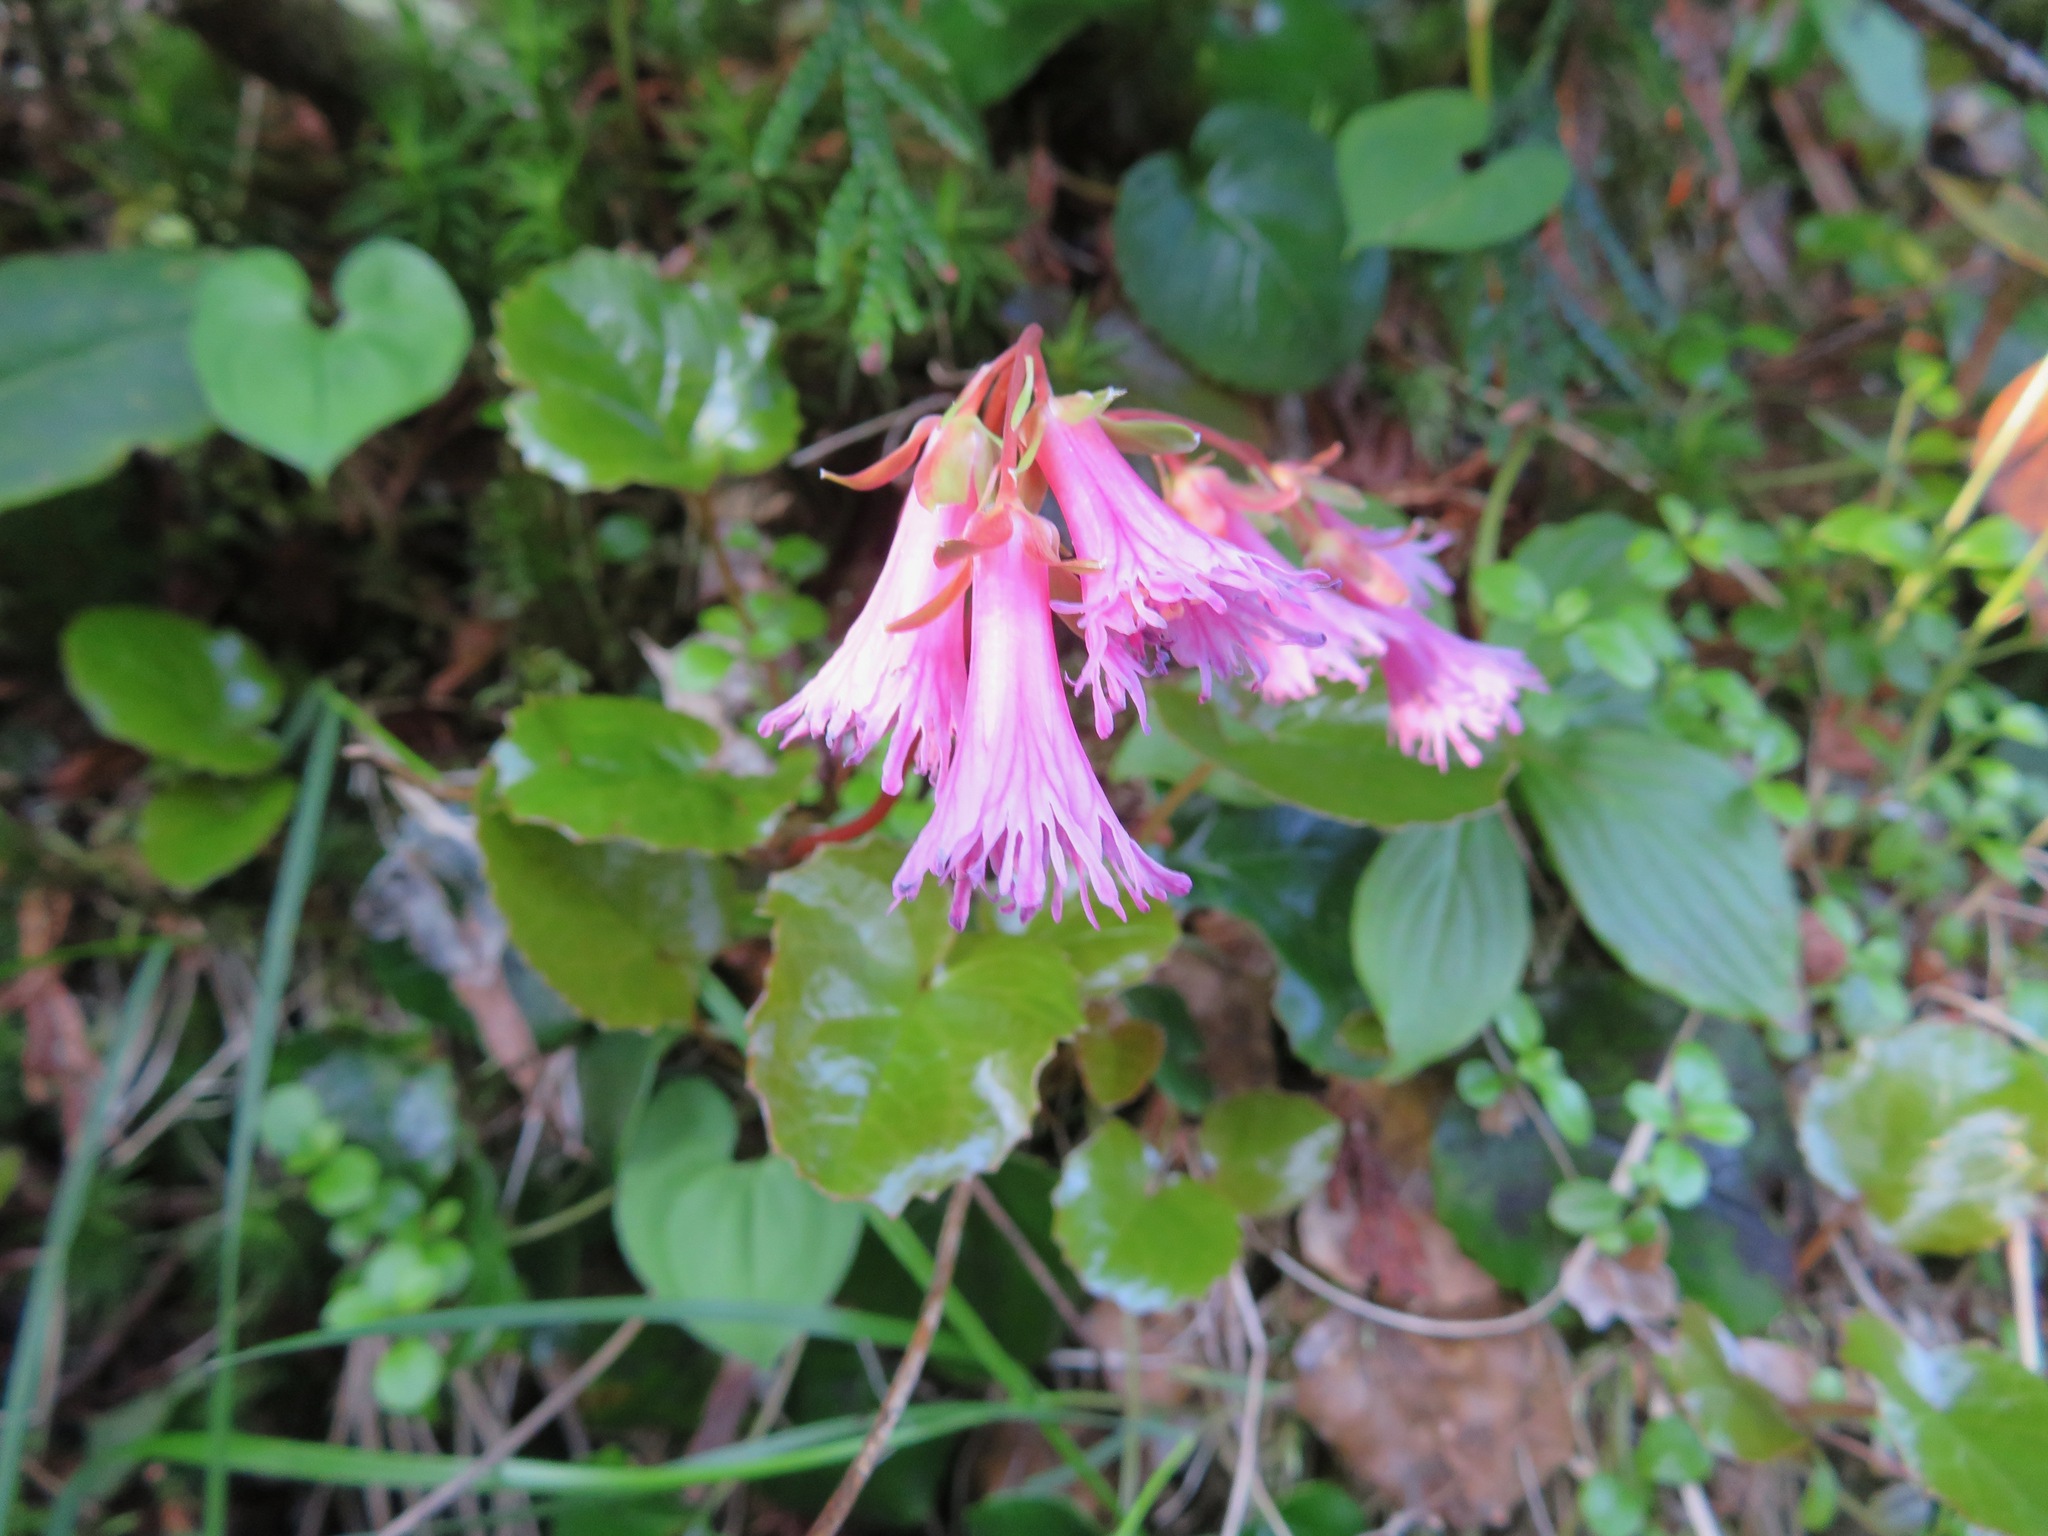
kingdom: Plantae
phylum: Tracheophyta
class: Magnoliopsida
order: Ericales
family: Diapensiaceae
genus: Schizocodon
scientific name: Schizocodon soldanelloides
